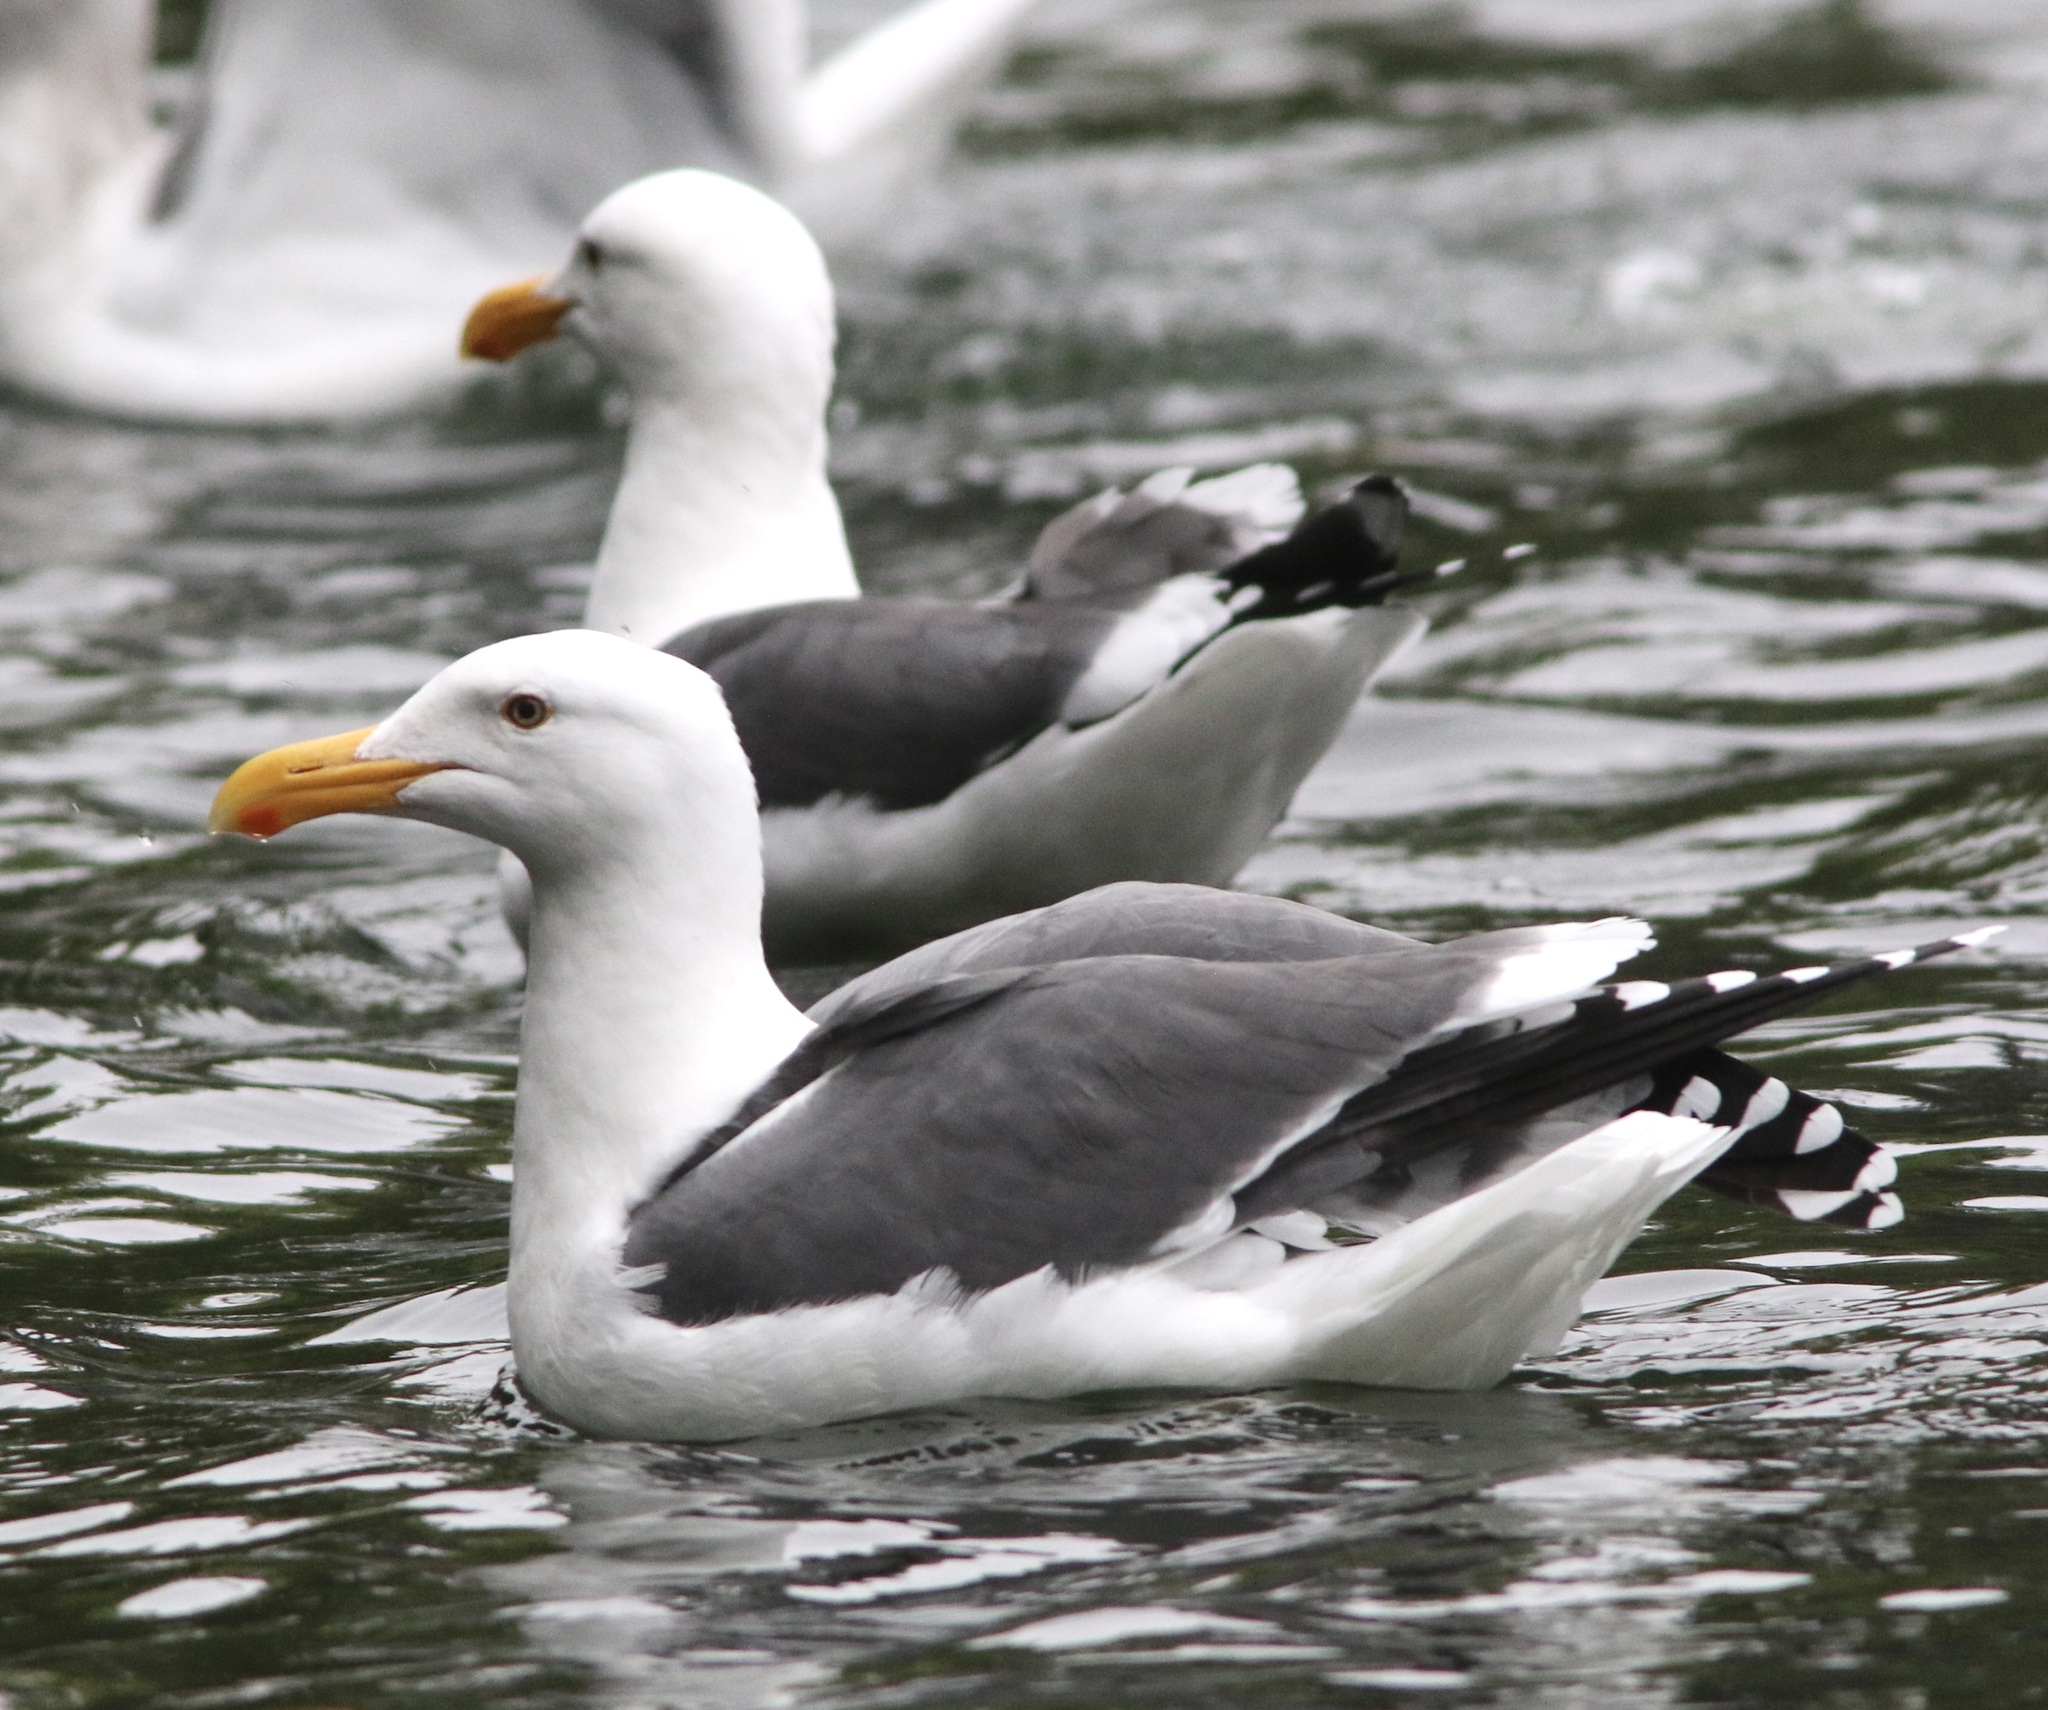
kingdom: Animalia
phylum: Chordata
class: Aves
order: Charadriiformes
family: Laridae
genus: Larus
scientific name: Larus occidentalis
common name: Western gull
